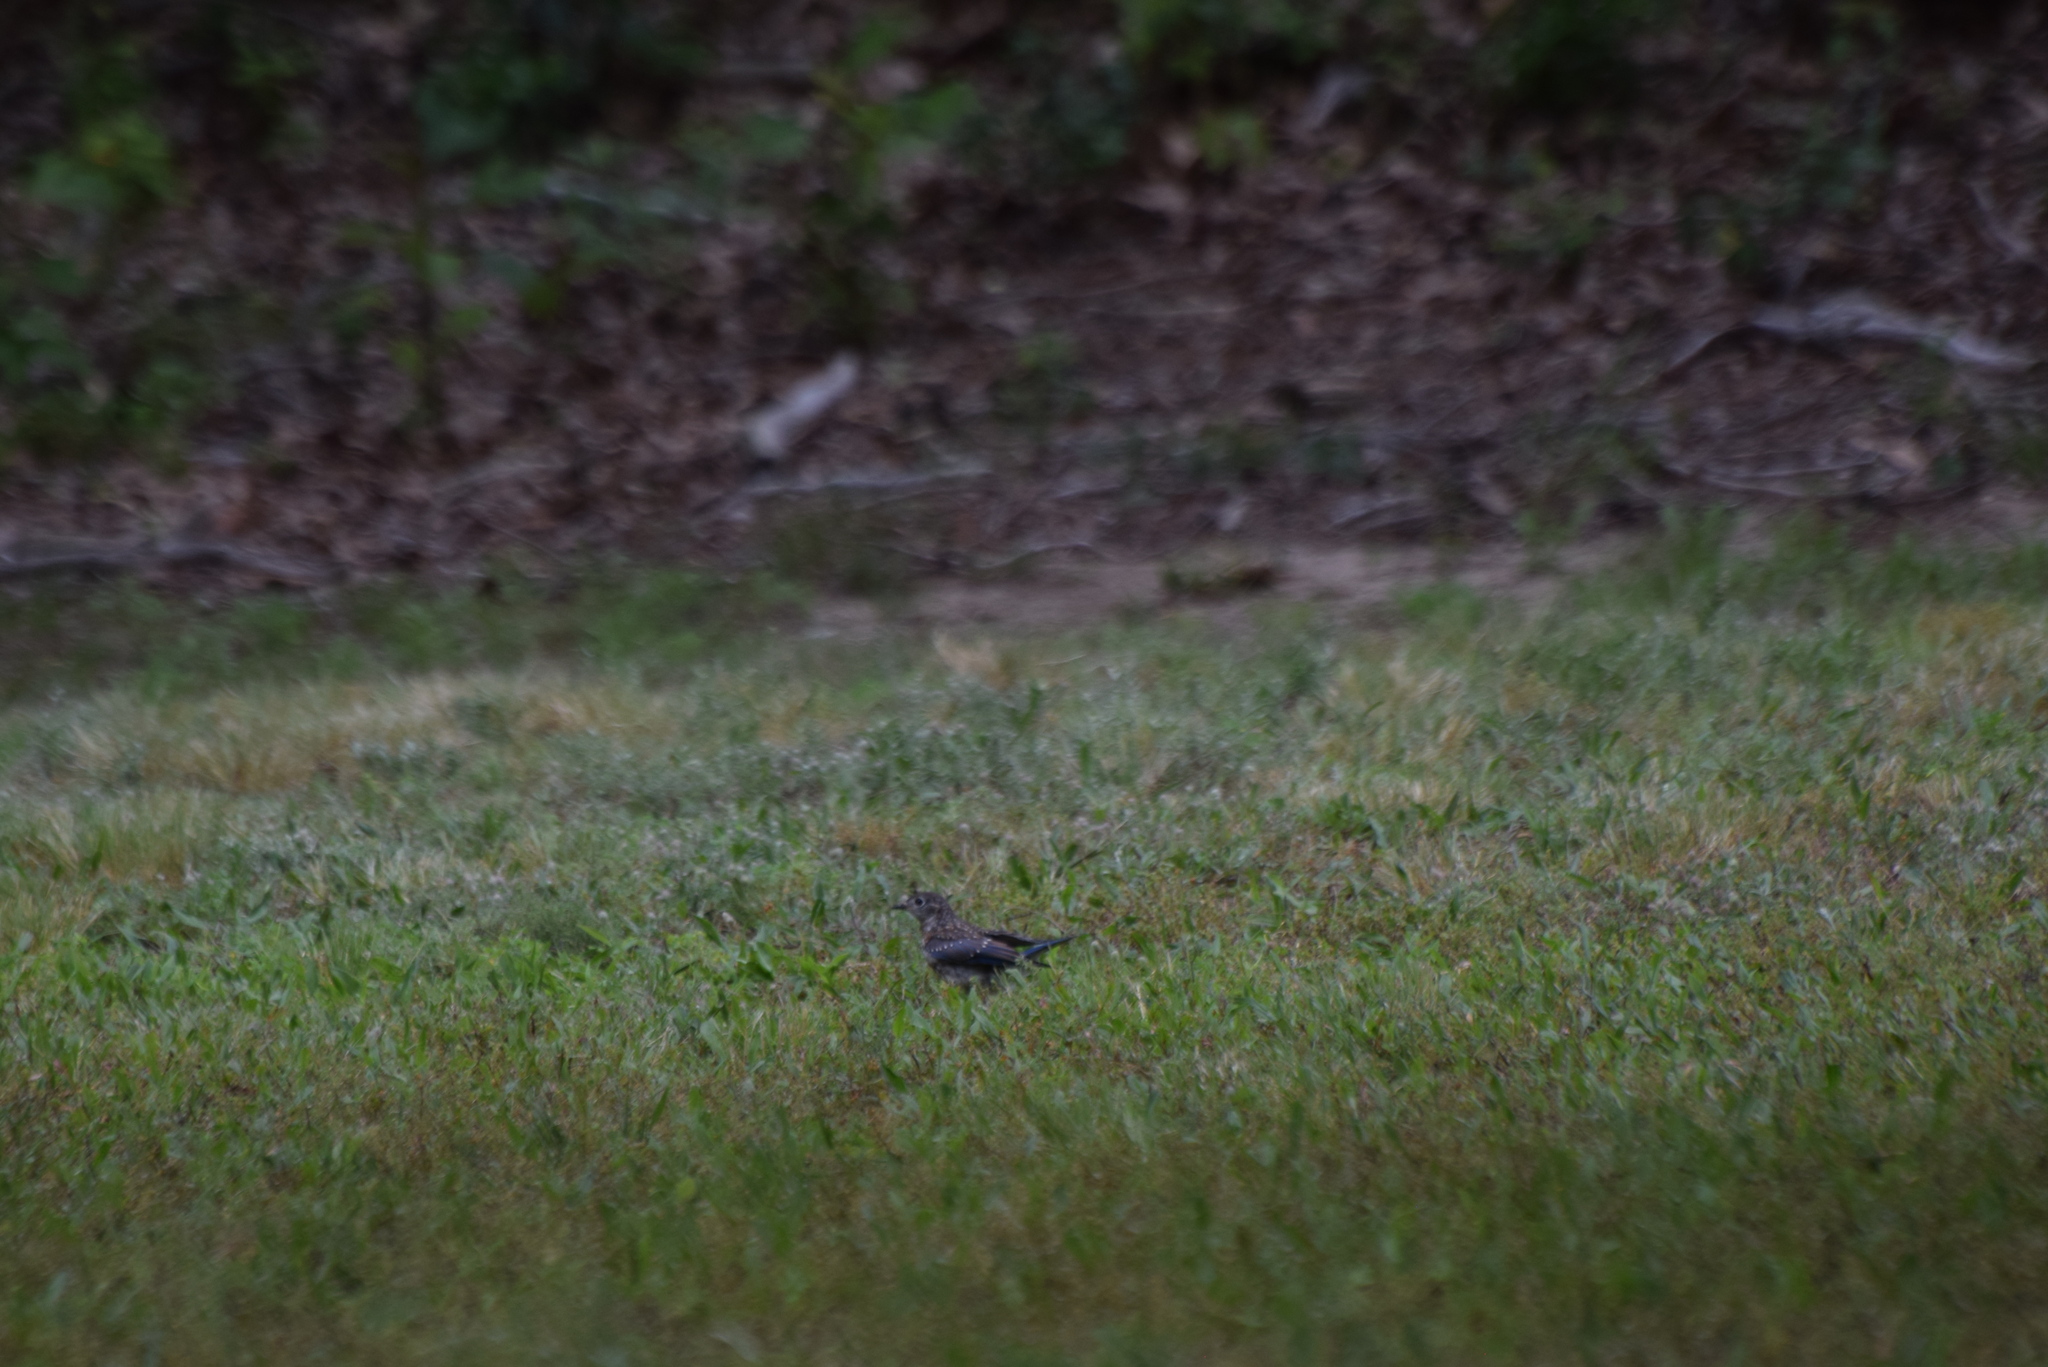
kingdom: Animalia
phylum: Chordata
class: Aves
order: Passeriformes
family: Turdidae
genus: Sialia
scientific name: Sialia sialis
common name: Eastern bluebird
